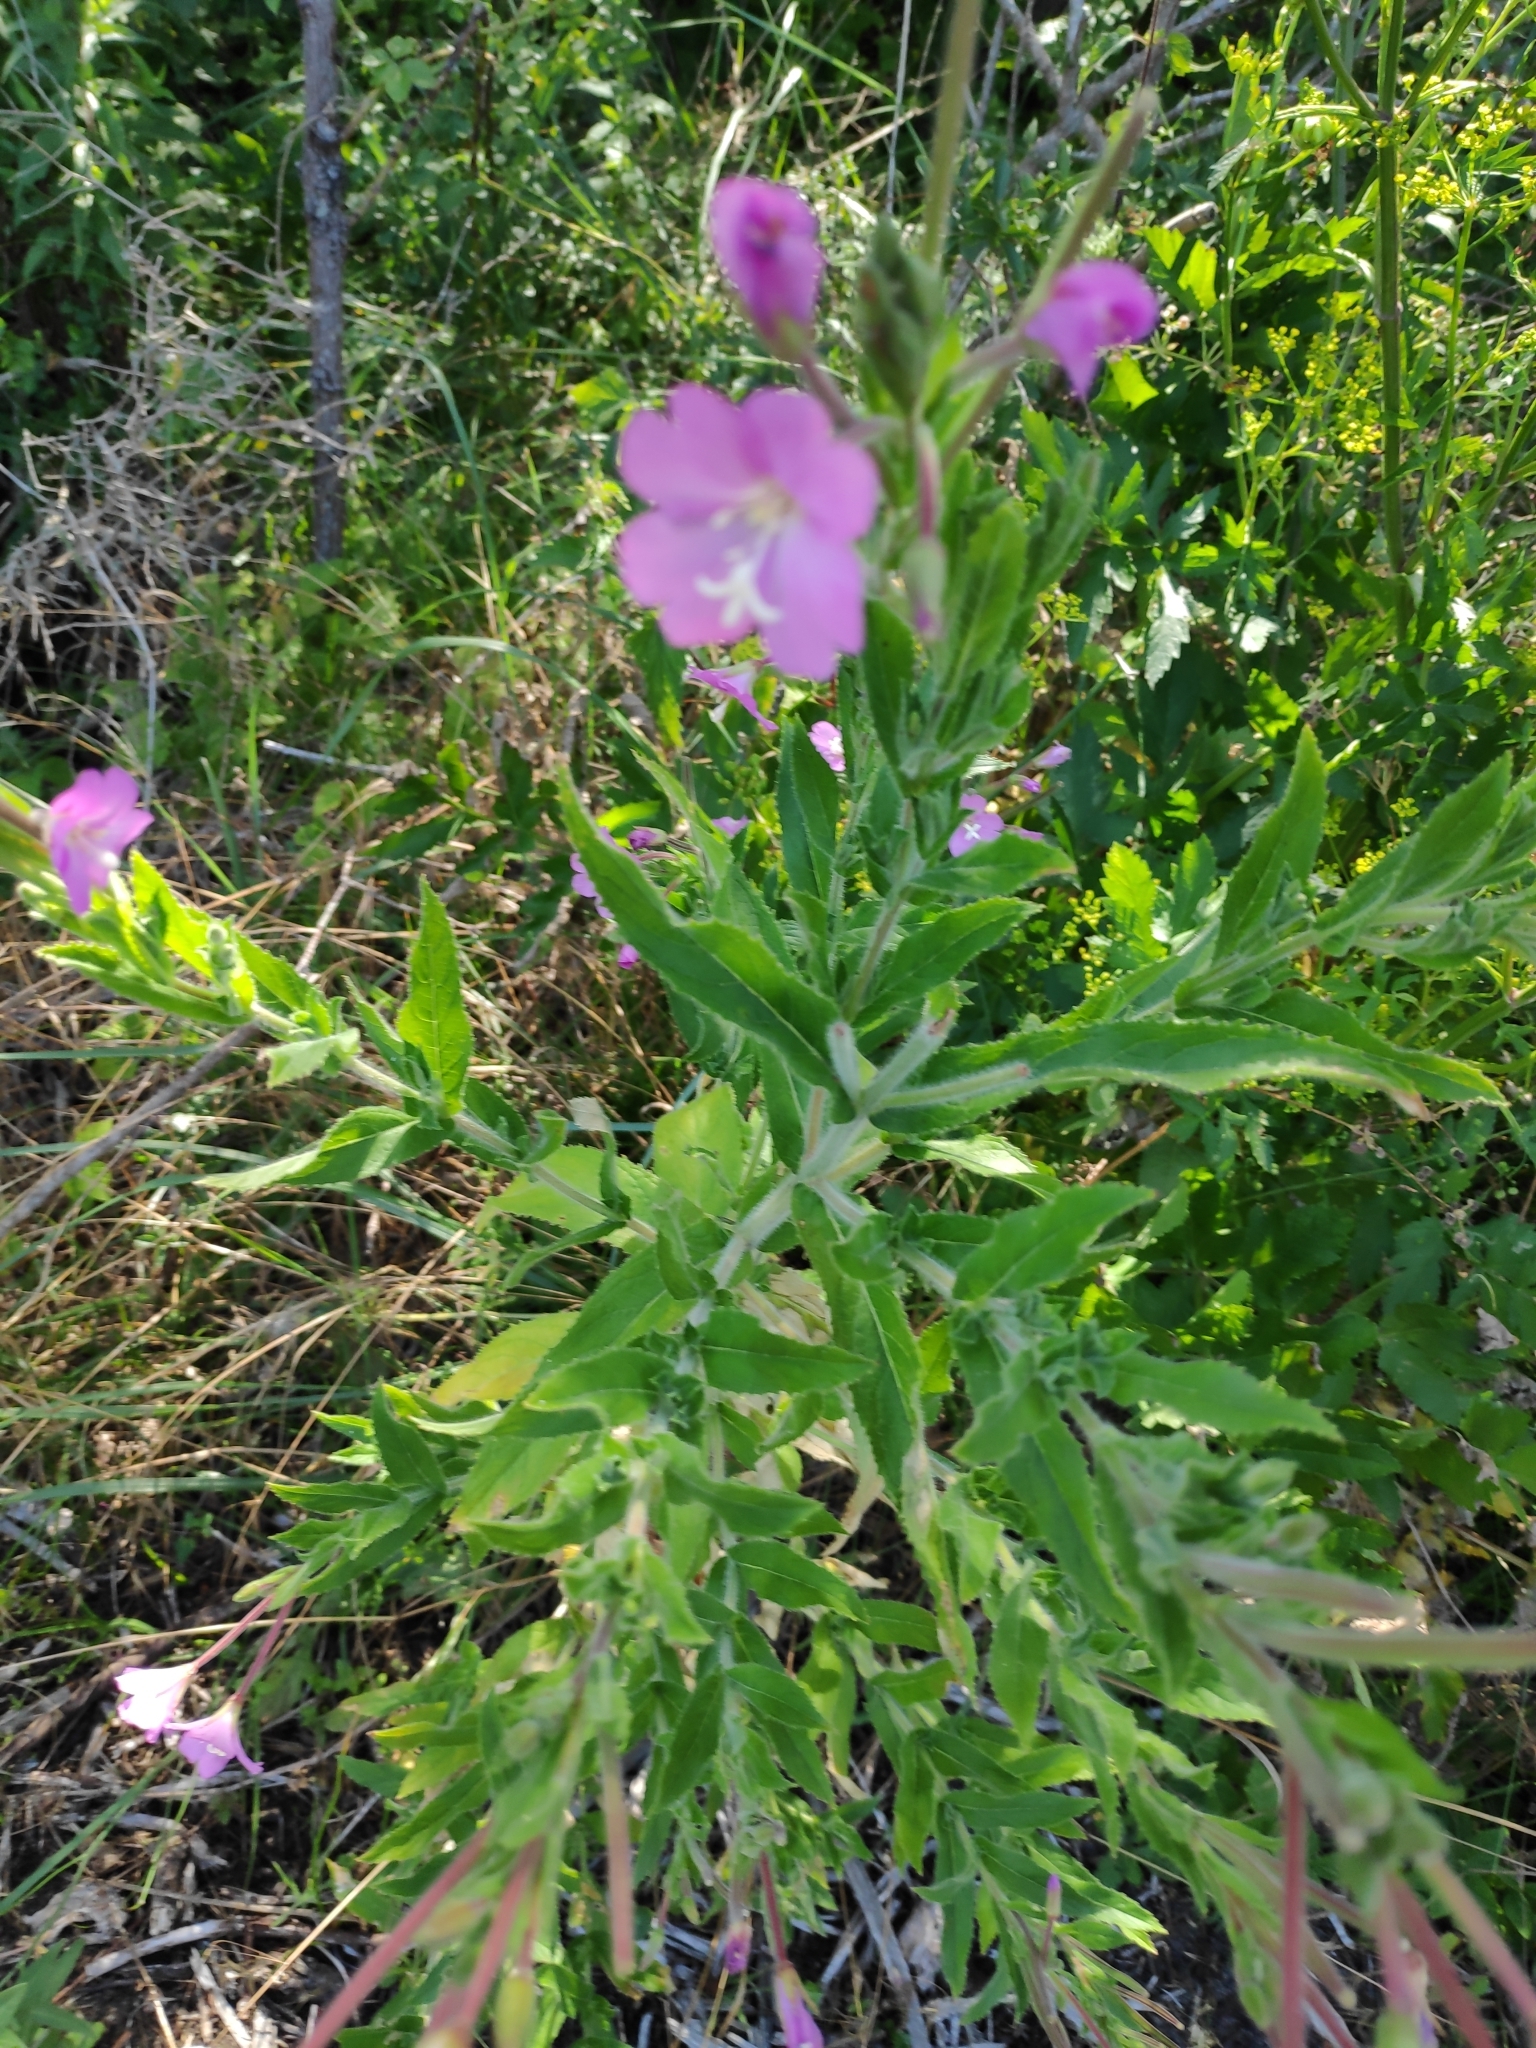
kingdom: Plantae
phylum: Tracheophyta
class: Magnoliopsida
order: Myrtales
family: Onagraceae
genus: Epilobium
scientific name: Epilobium hirsutum
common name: Great willowherb
